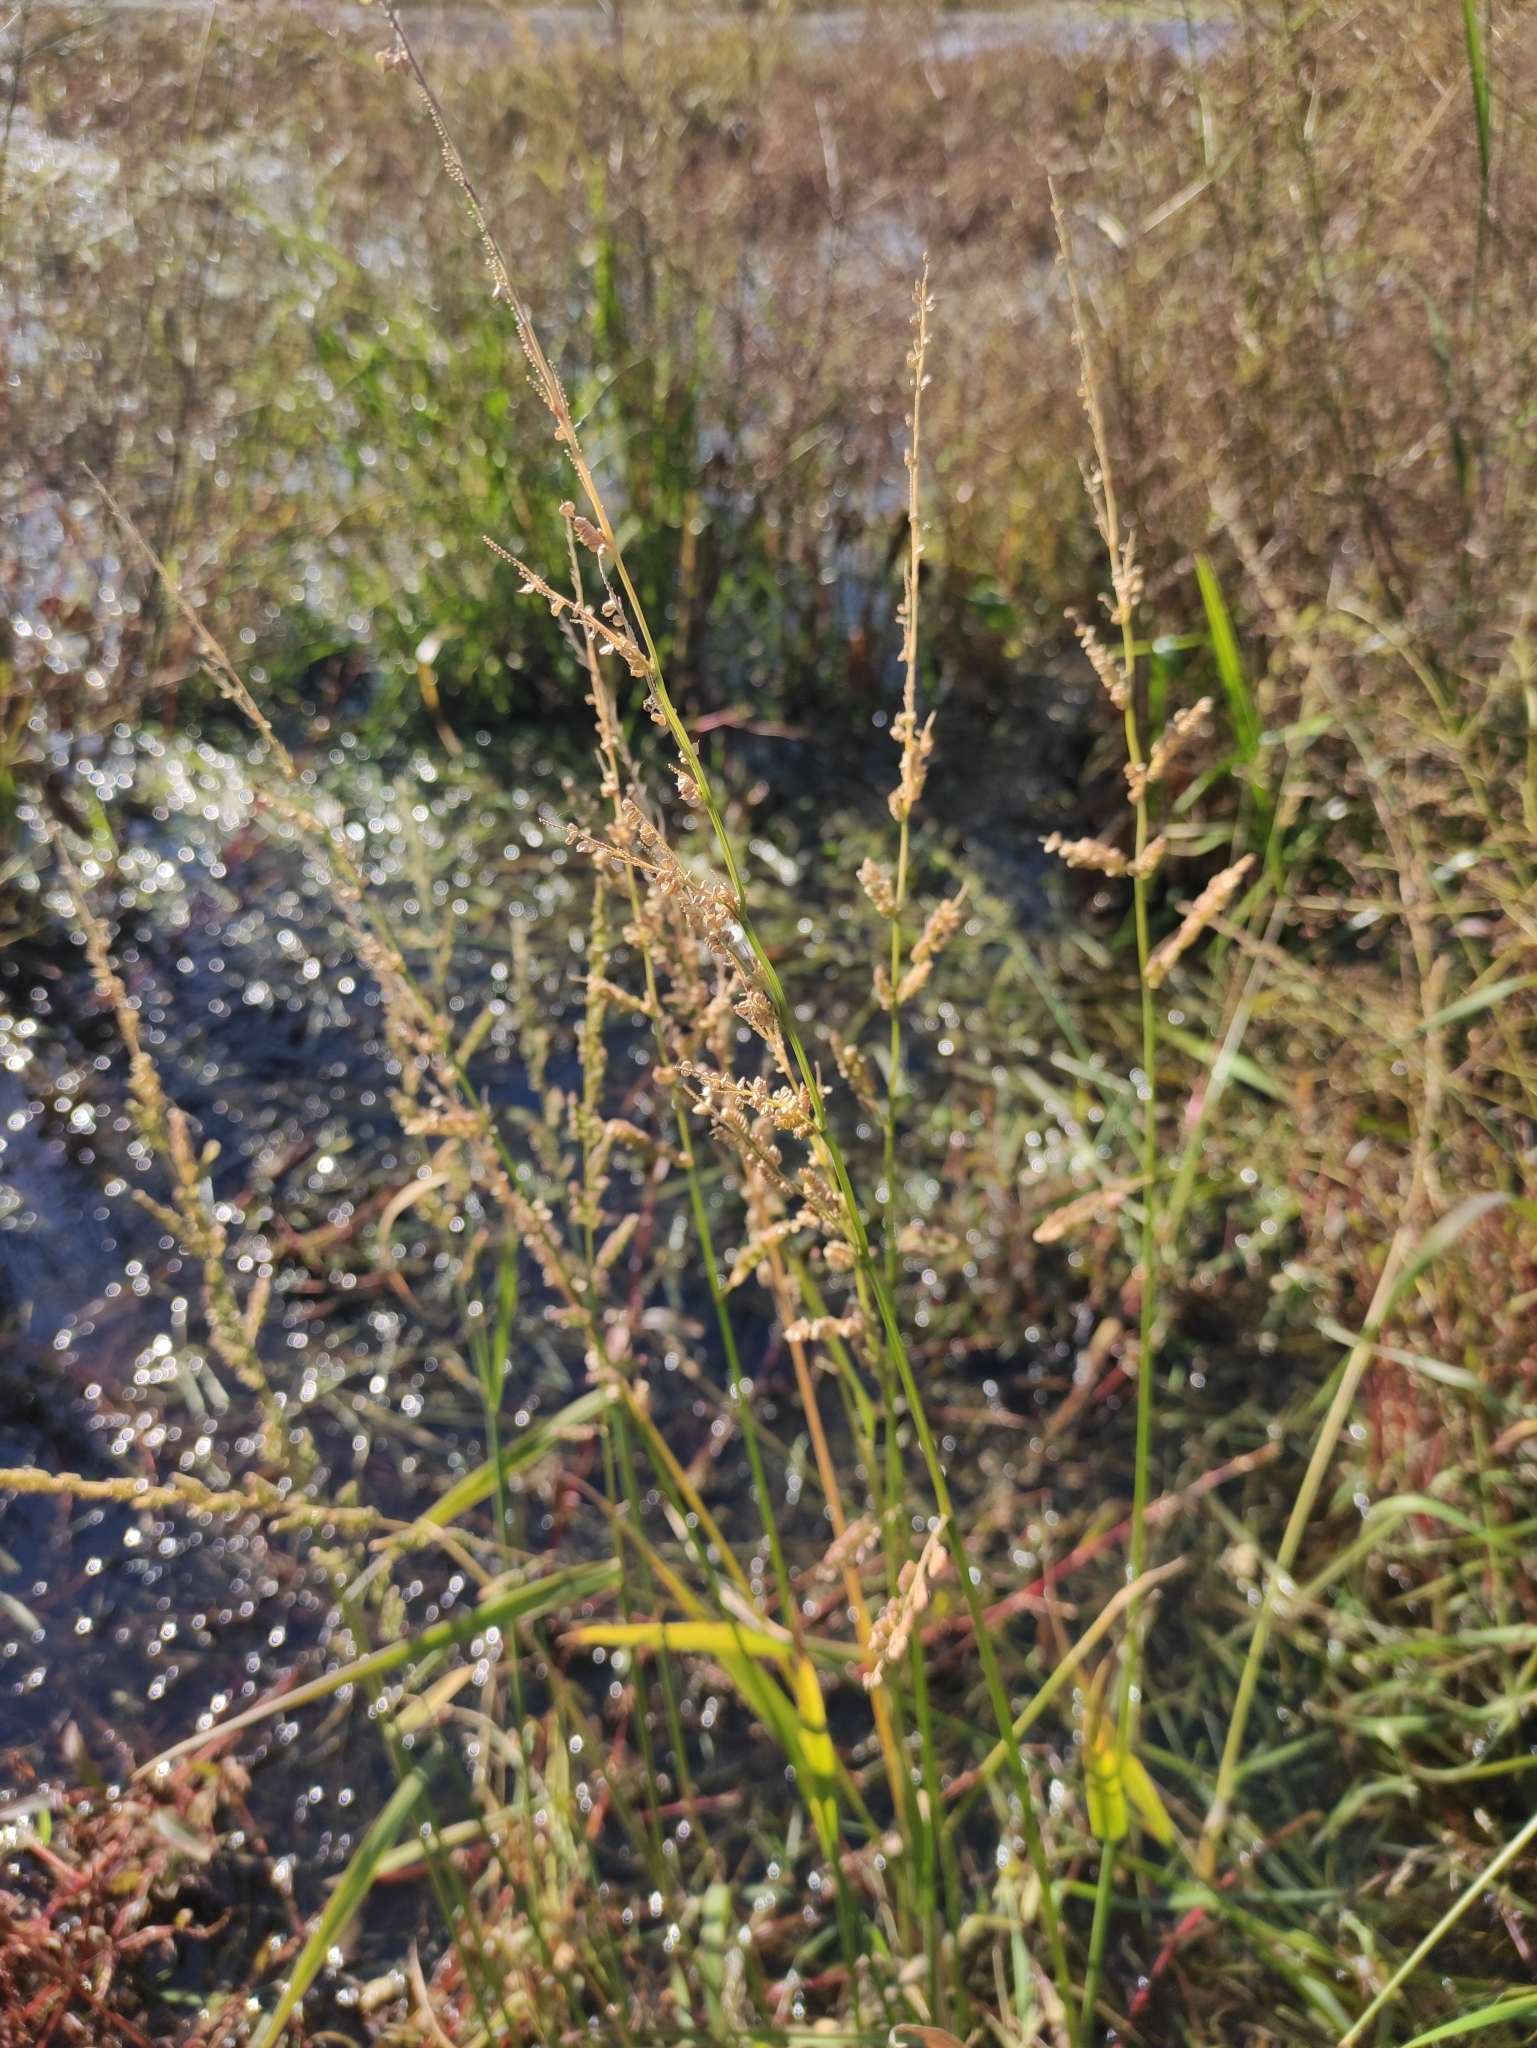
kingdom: Plantae
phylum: Tracheophyta
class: Liliopsida
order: Poales
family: Poaceae
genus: Beckmannia
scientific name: Beckmannia syzigachne
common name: American slough-grass
